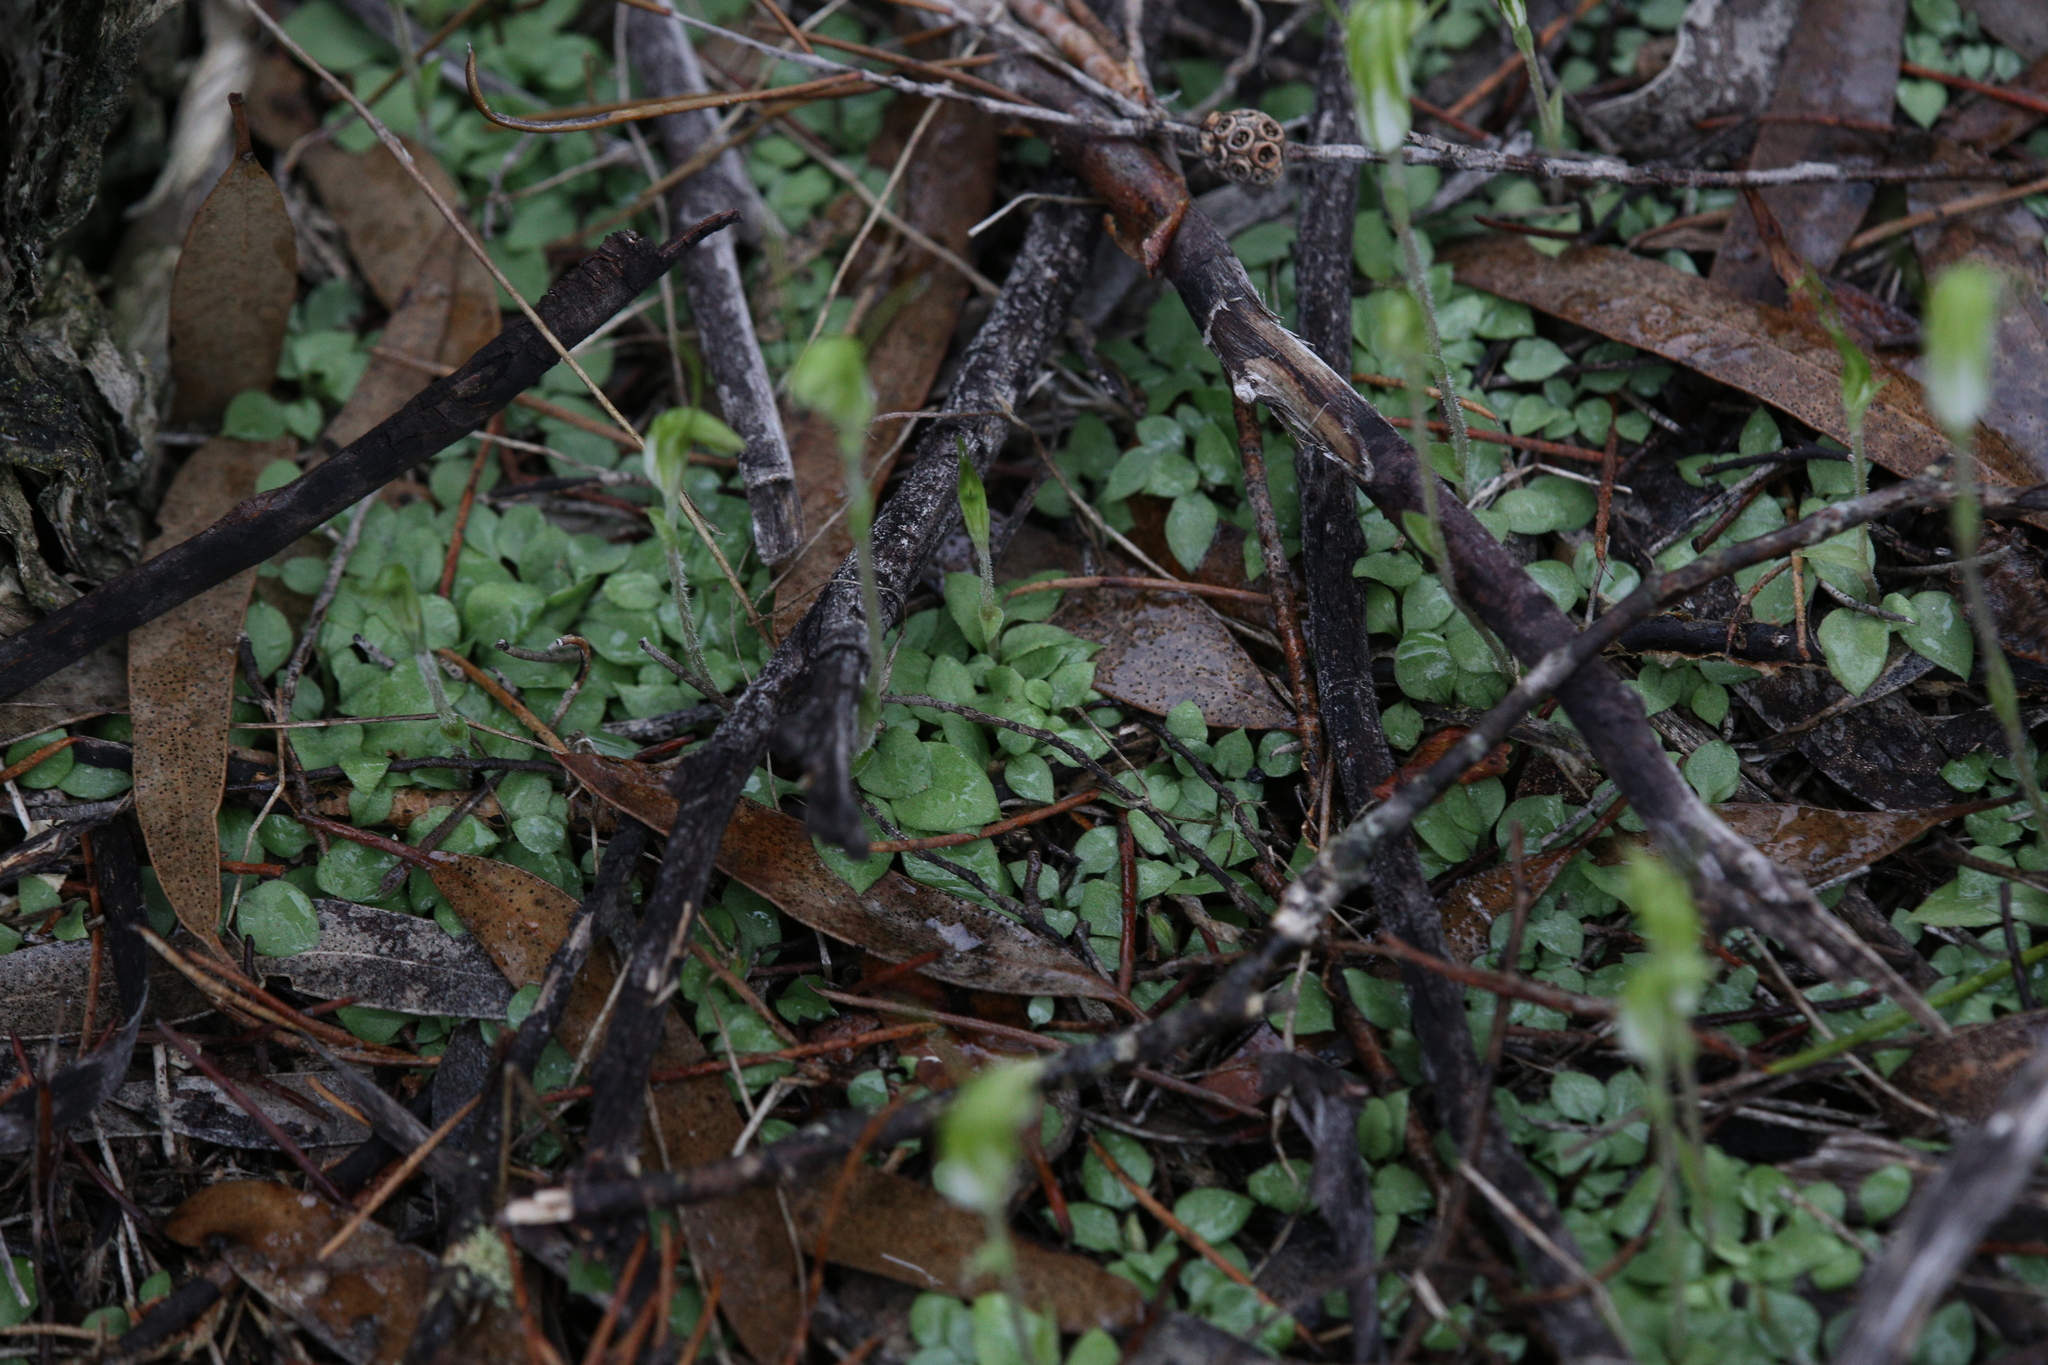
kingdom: Plantae
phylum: Tracheophyta
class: Liliopsida
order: Asparagales
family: Orchidaceae
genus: Pterostylis
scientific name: Pterostylis setulosa
